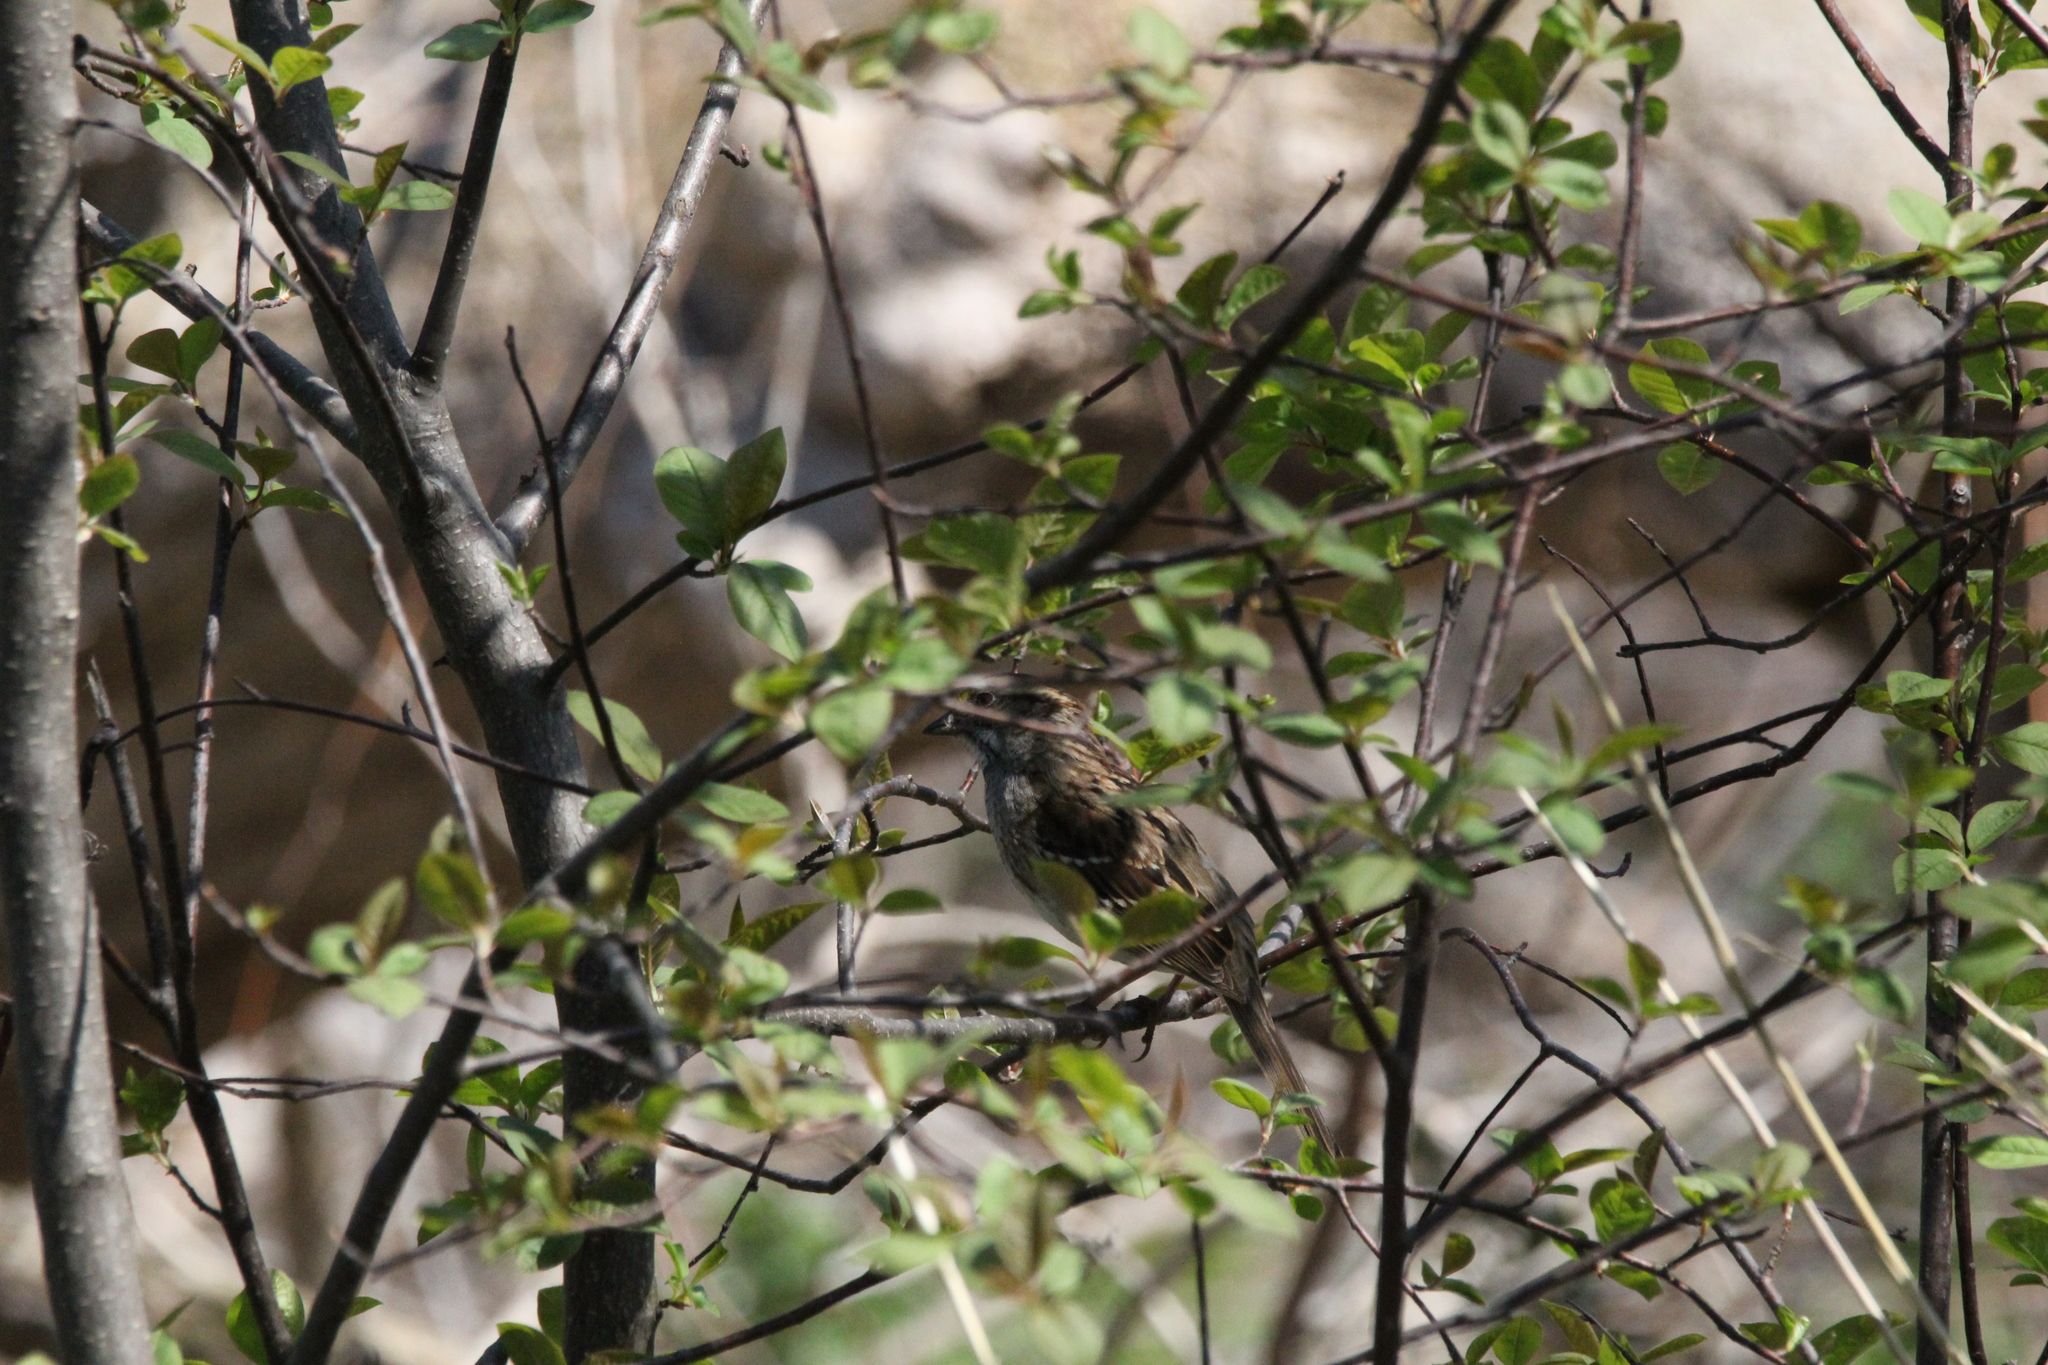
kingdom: Animalia
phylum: Chordata
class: Aves
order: Passeriformes
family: Passerellidae
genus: Zonotrichia
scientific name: Zonotrichia albicollis
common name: White-throated sparrow
